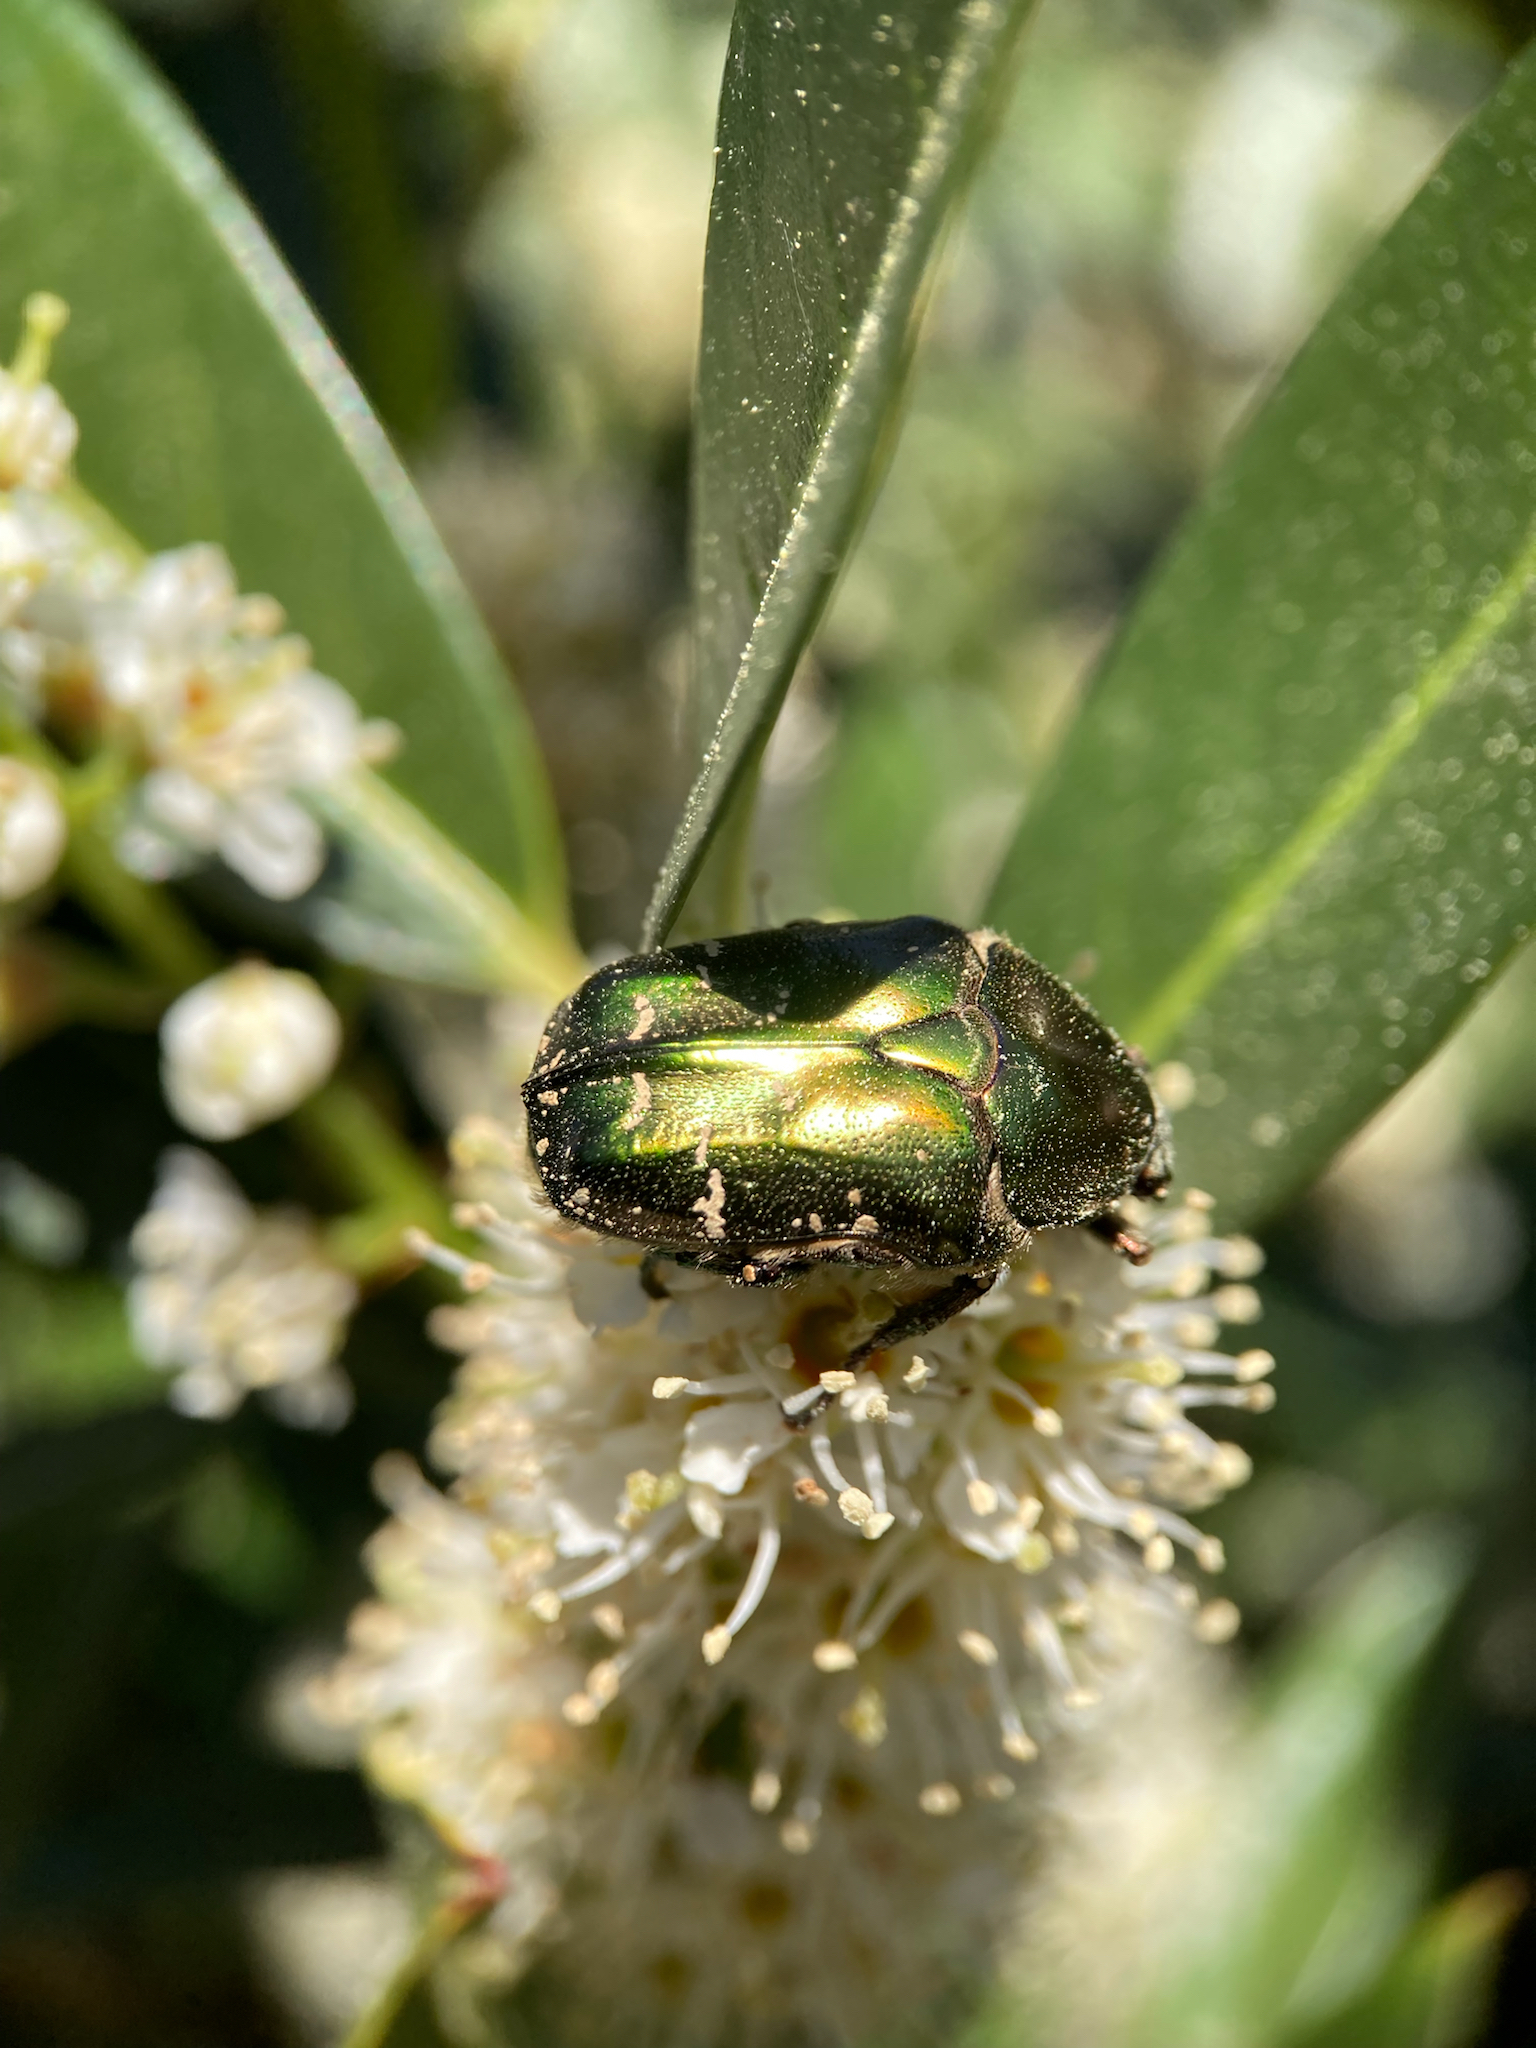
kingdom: Animalia
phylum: Arthropoda
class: Insecta
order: Coleoptera
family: Scarabaeidae
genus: Protaetia
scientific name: Protaetia cuprea
